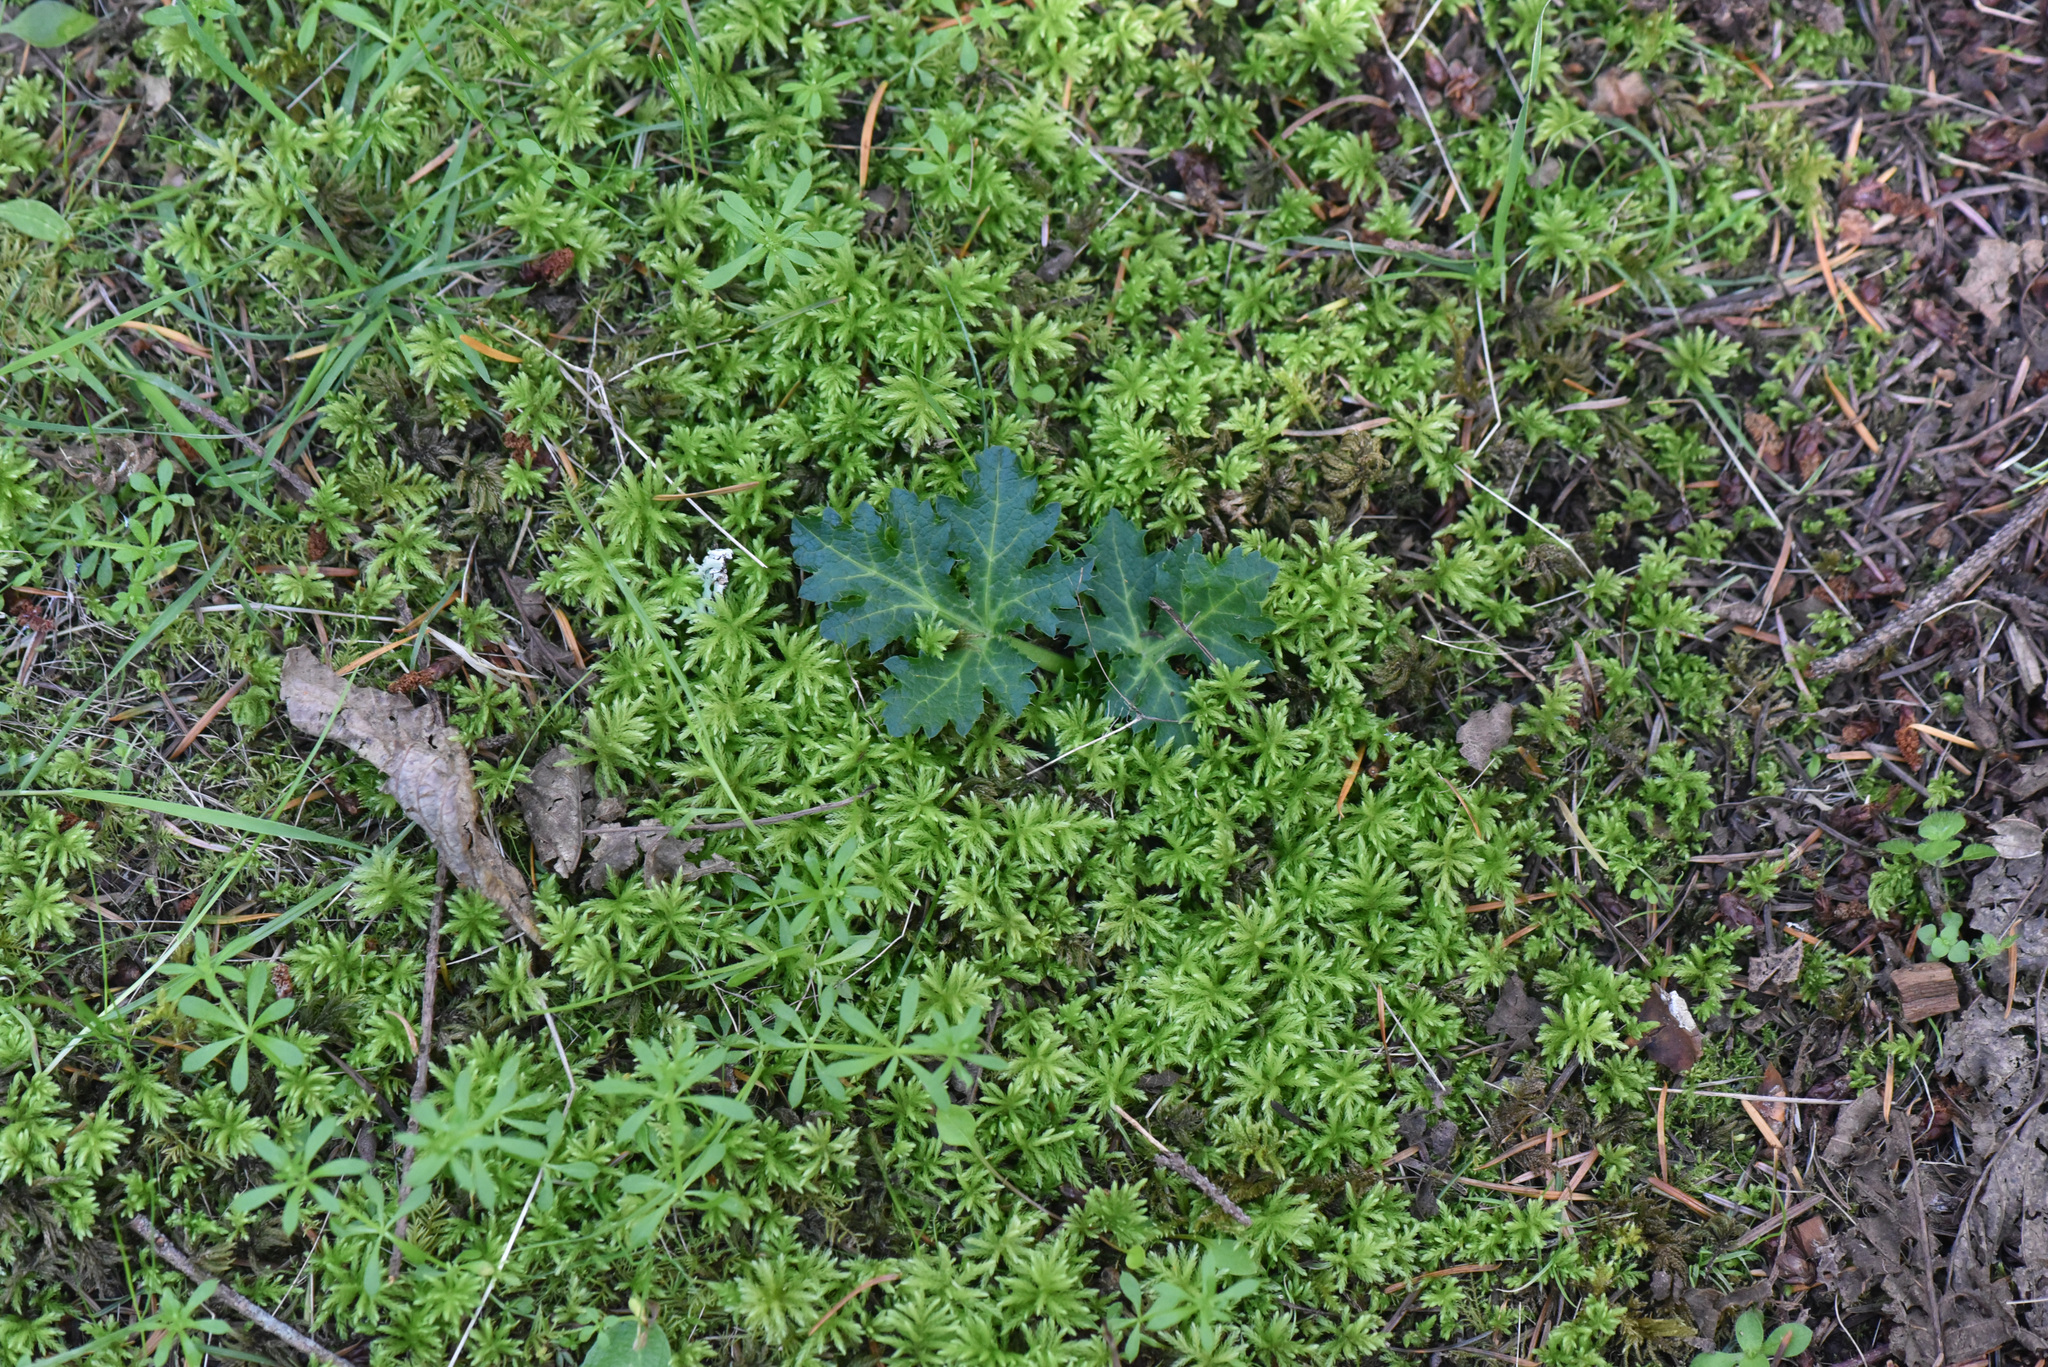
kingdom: Plantae
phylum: Tracheophyta
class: Magnoliopsida
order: Apiales
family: Apiaceae
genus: Sanicula
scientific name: Sanicula crassicaulis
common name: Western snakeroot
